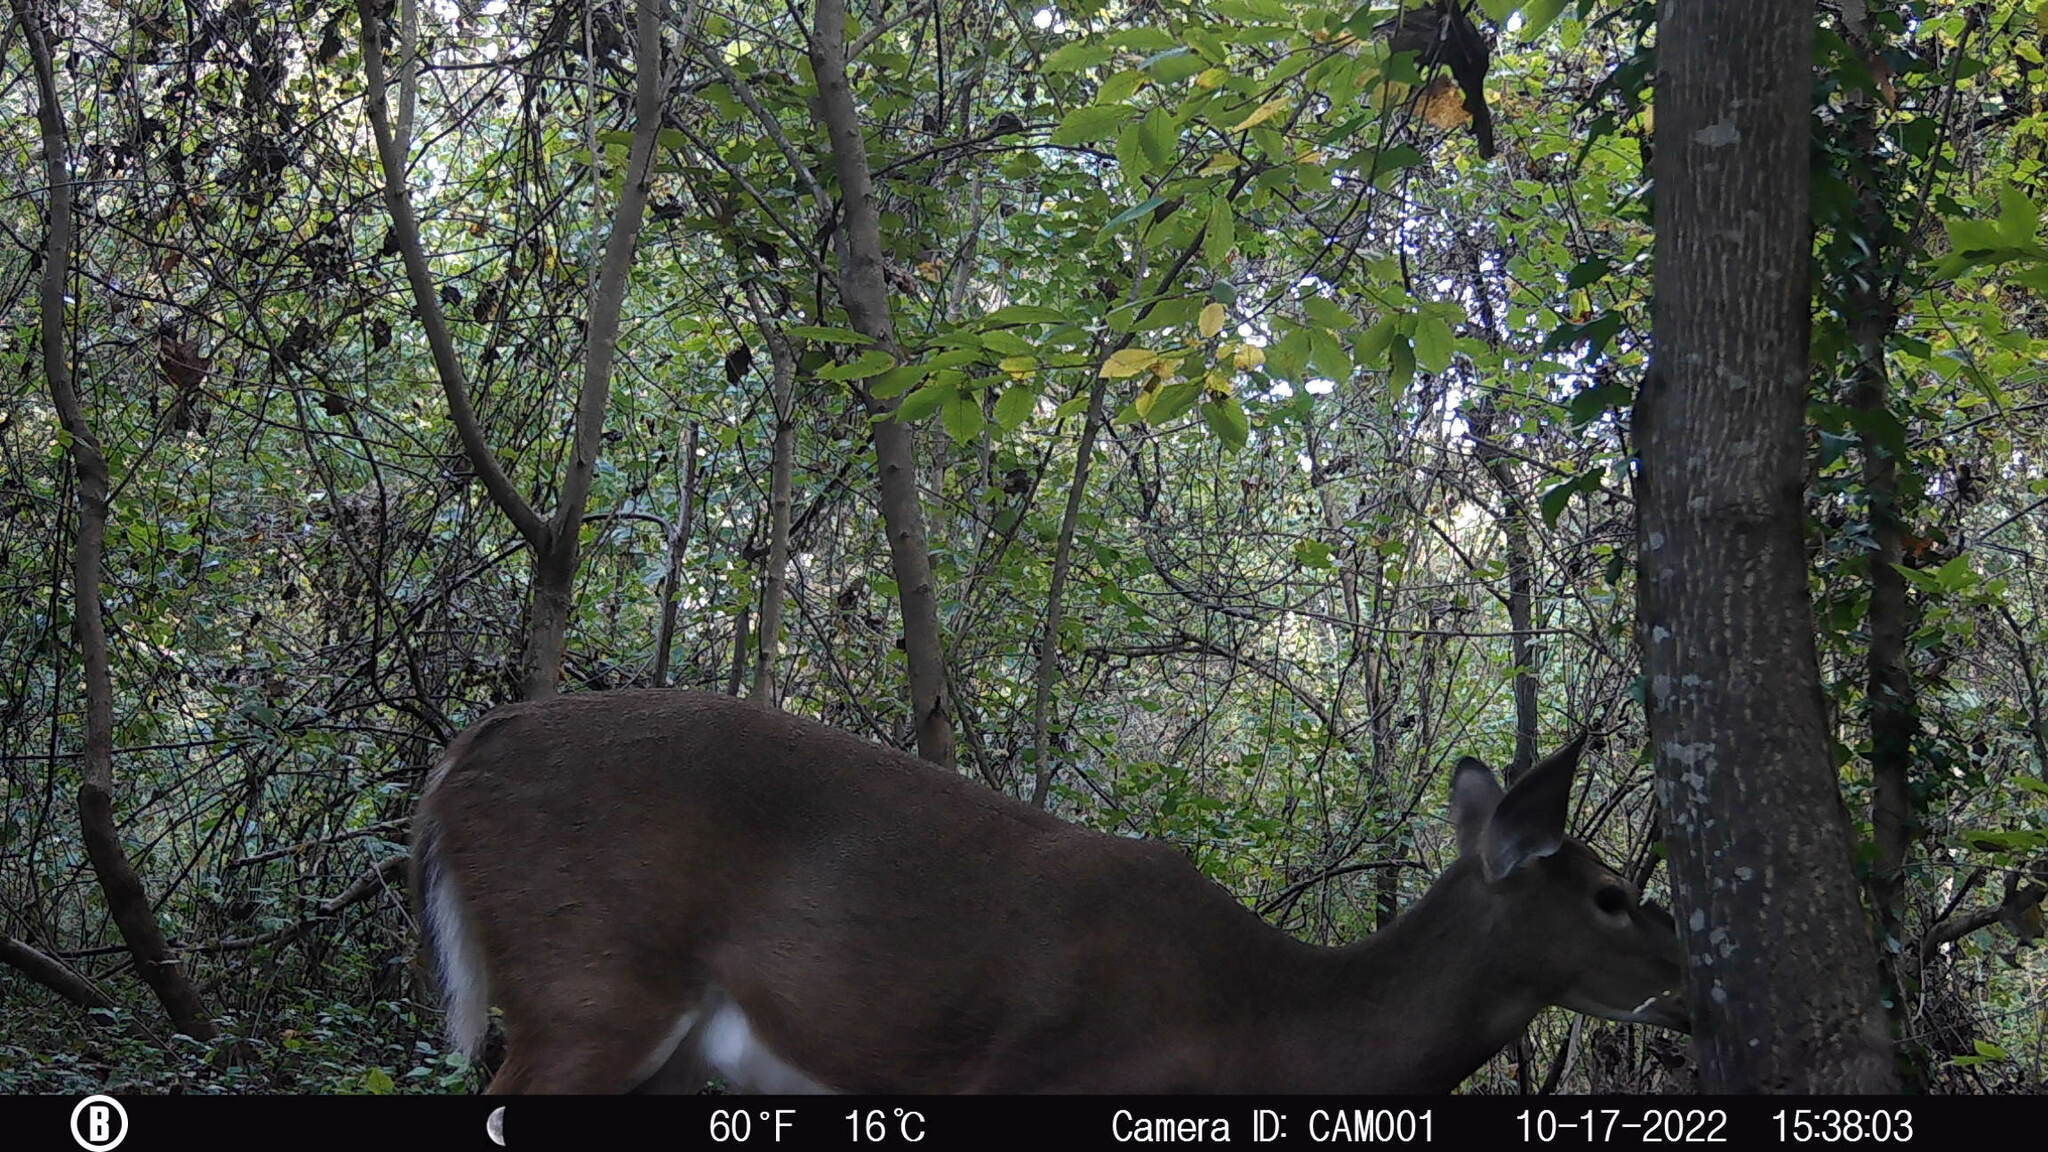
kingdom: Animalia
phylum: Chordata
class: Mammalia
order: Artiodactyla
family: Cervidae
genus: Odocoileus
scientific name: Odocoileus virginianus
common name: White-tailed deer
